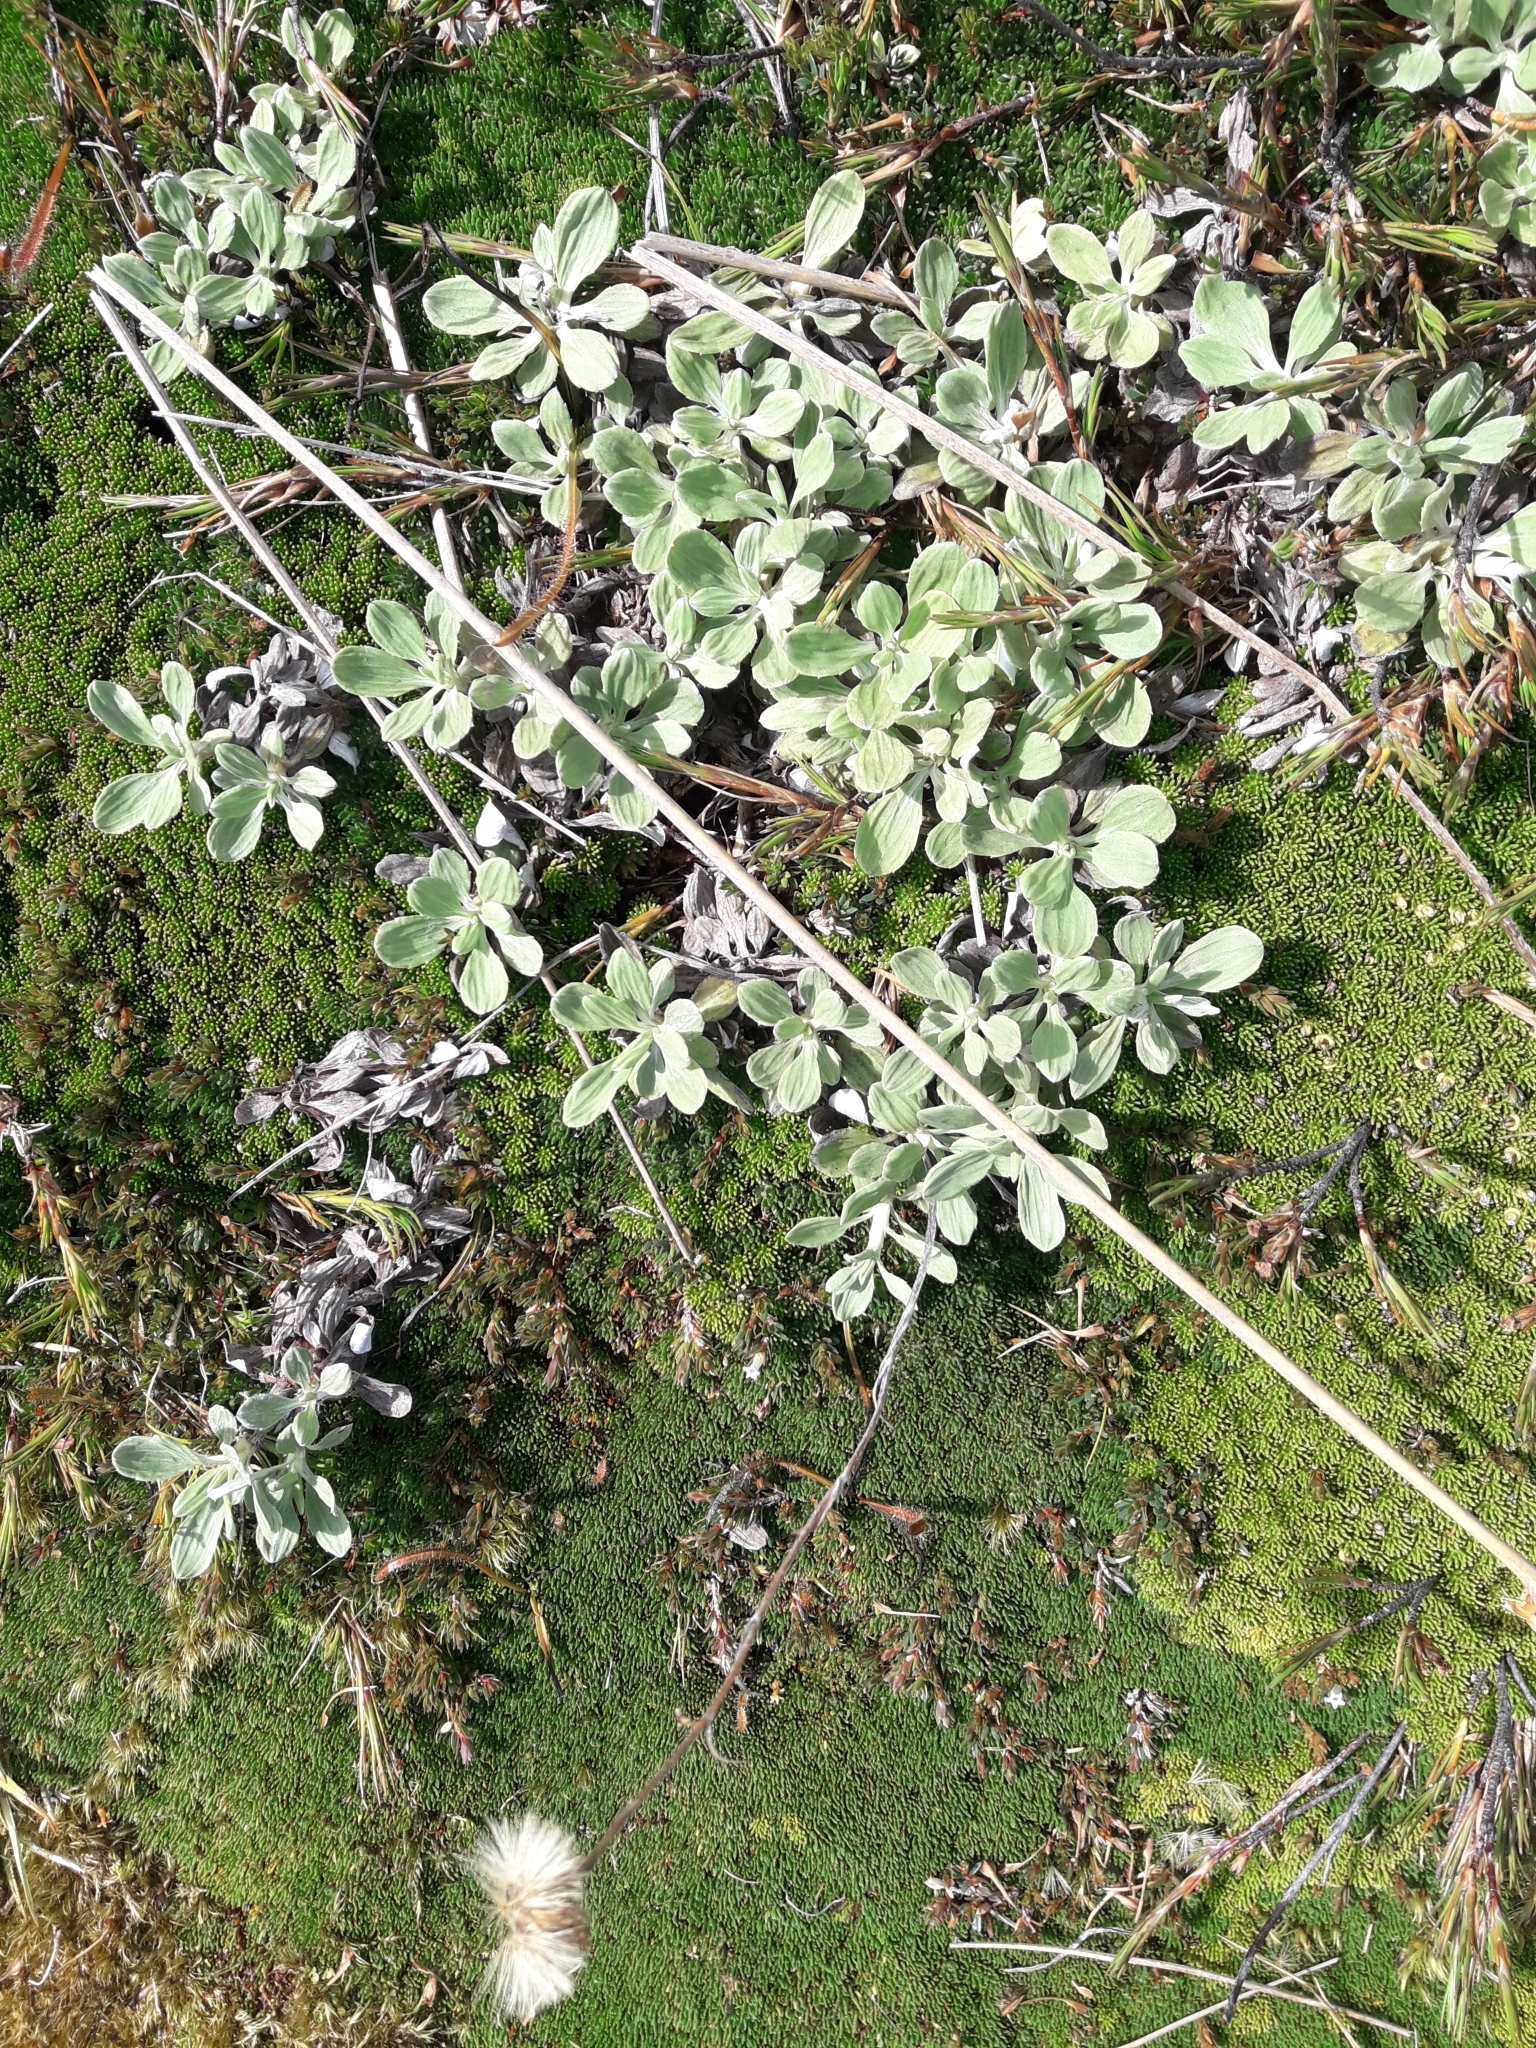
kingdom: Plantae
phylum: Tracheophyta
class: Magnoliopsida
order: Asterales
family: Asteraceae
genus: Celmisia
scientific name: Celmisia discolor
